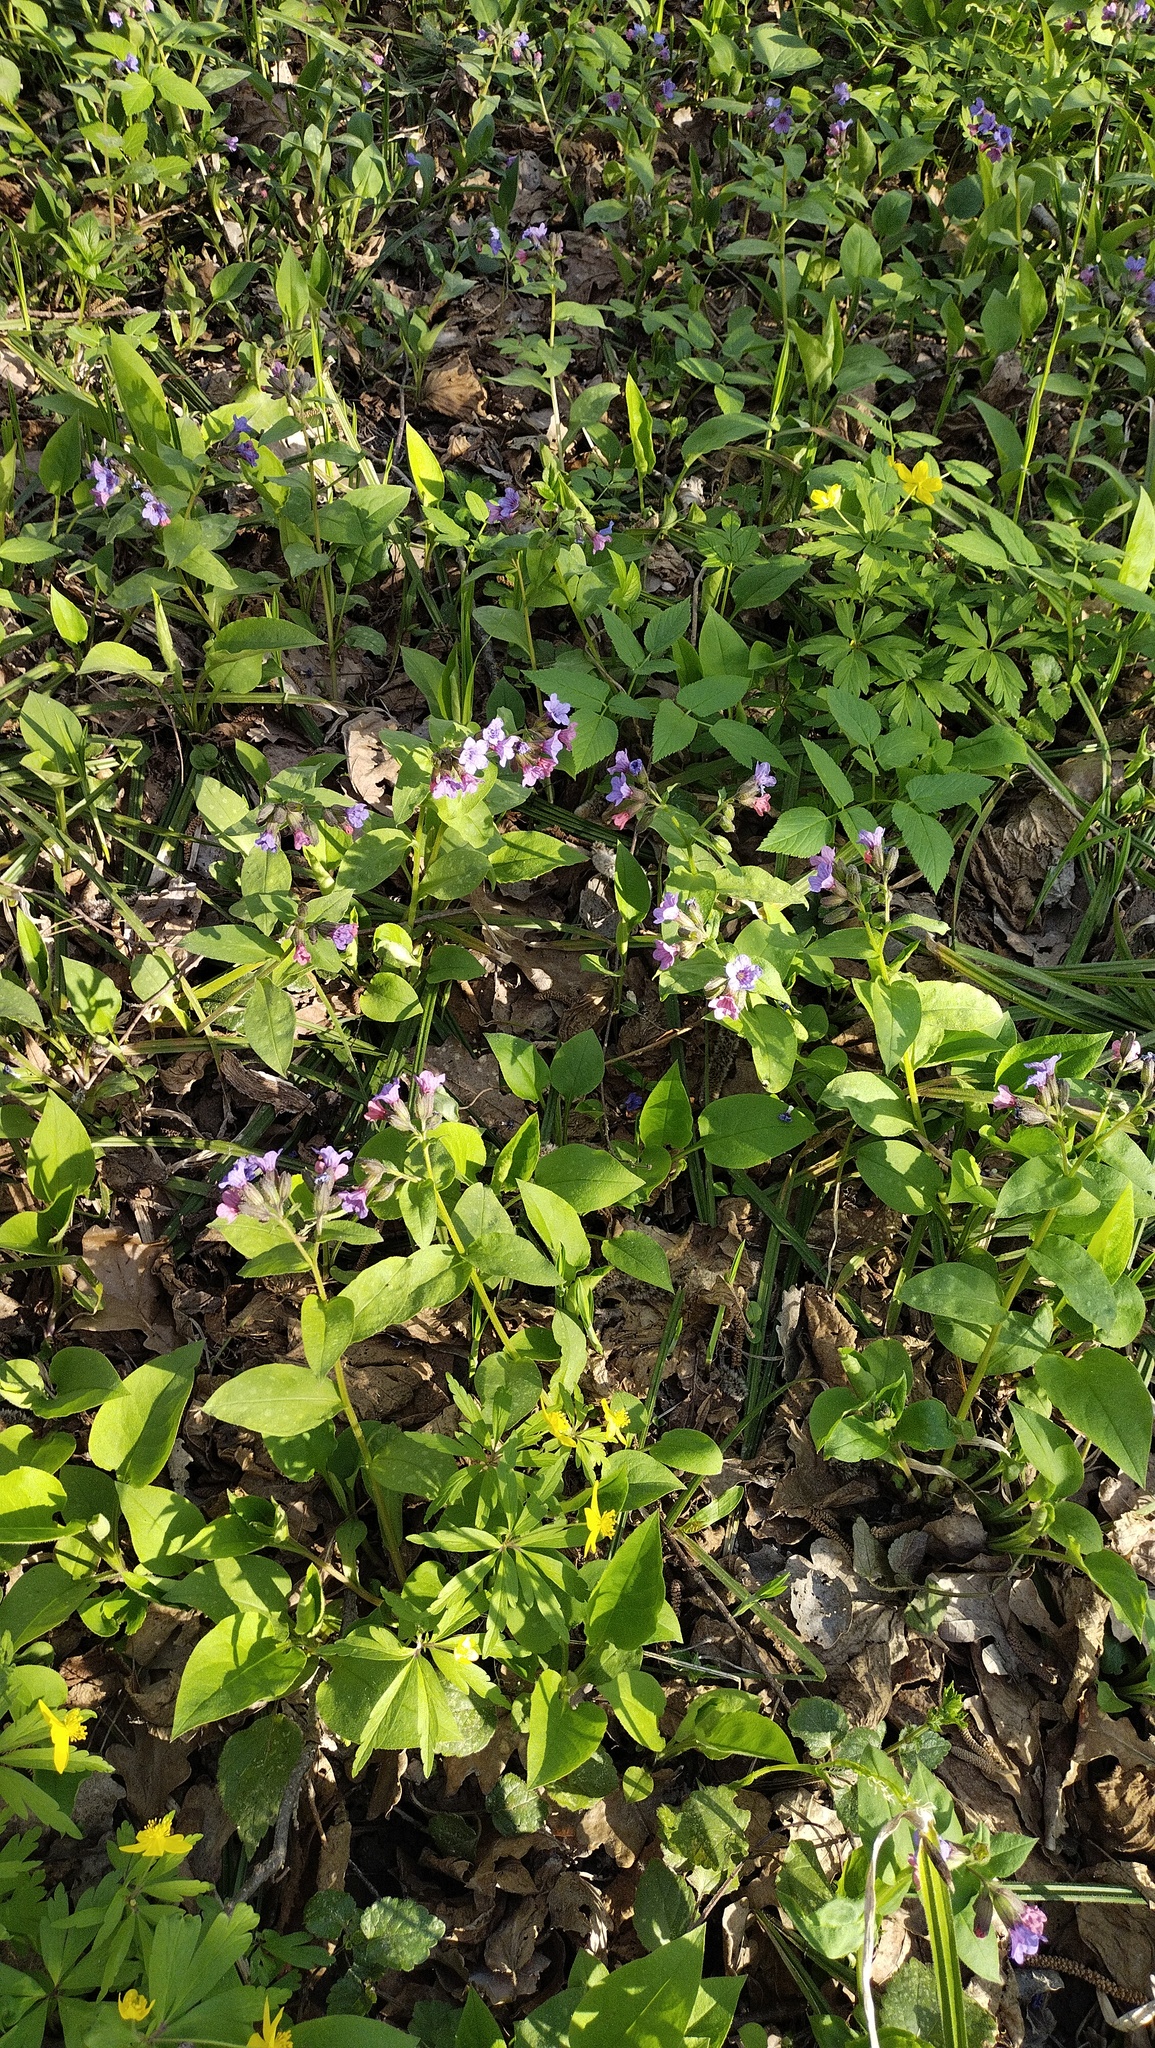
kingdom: Plantae
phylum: Tracheophyta
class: Magnoliopsida
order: Boraginales
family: Boraginaceae
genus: Pulmonaria
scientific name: Pulmonaria obscura
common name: Suffolk lungwort
